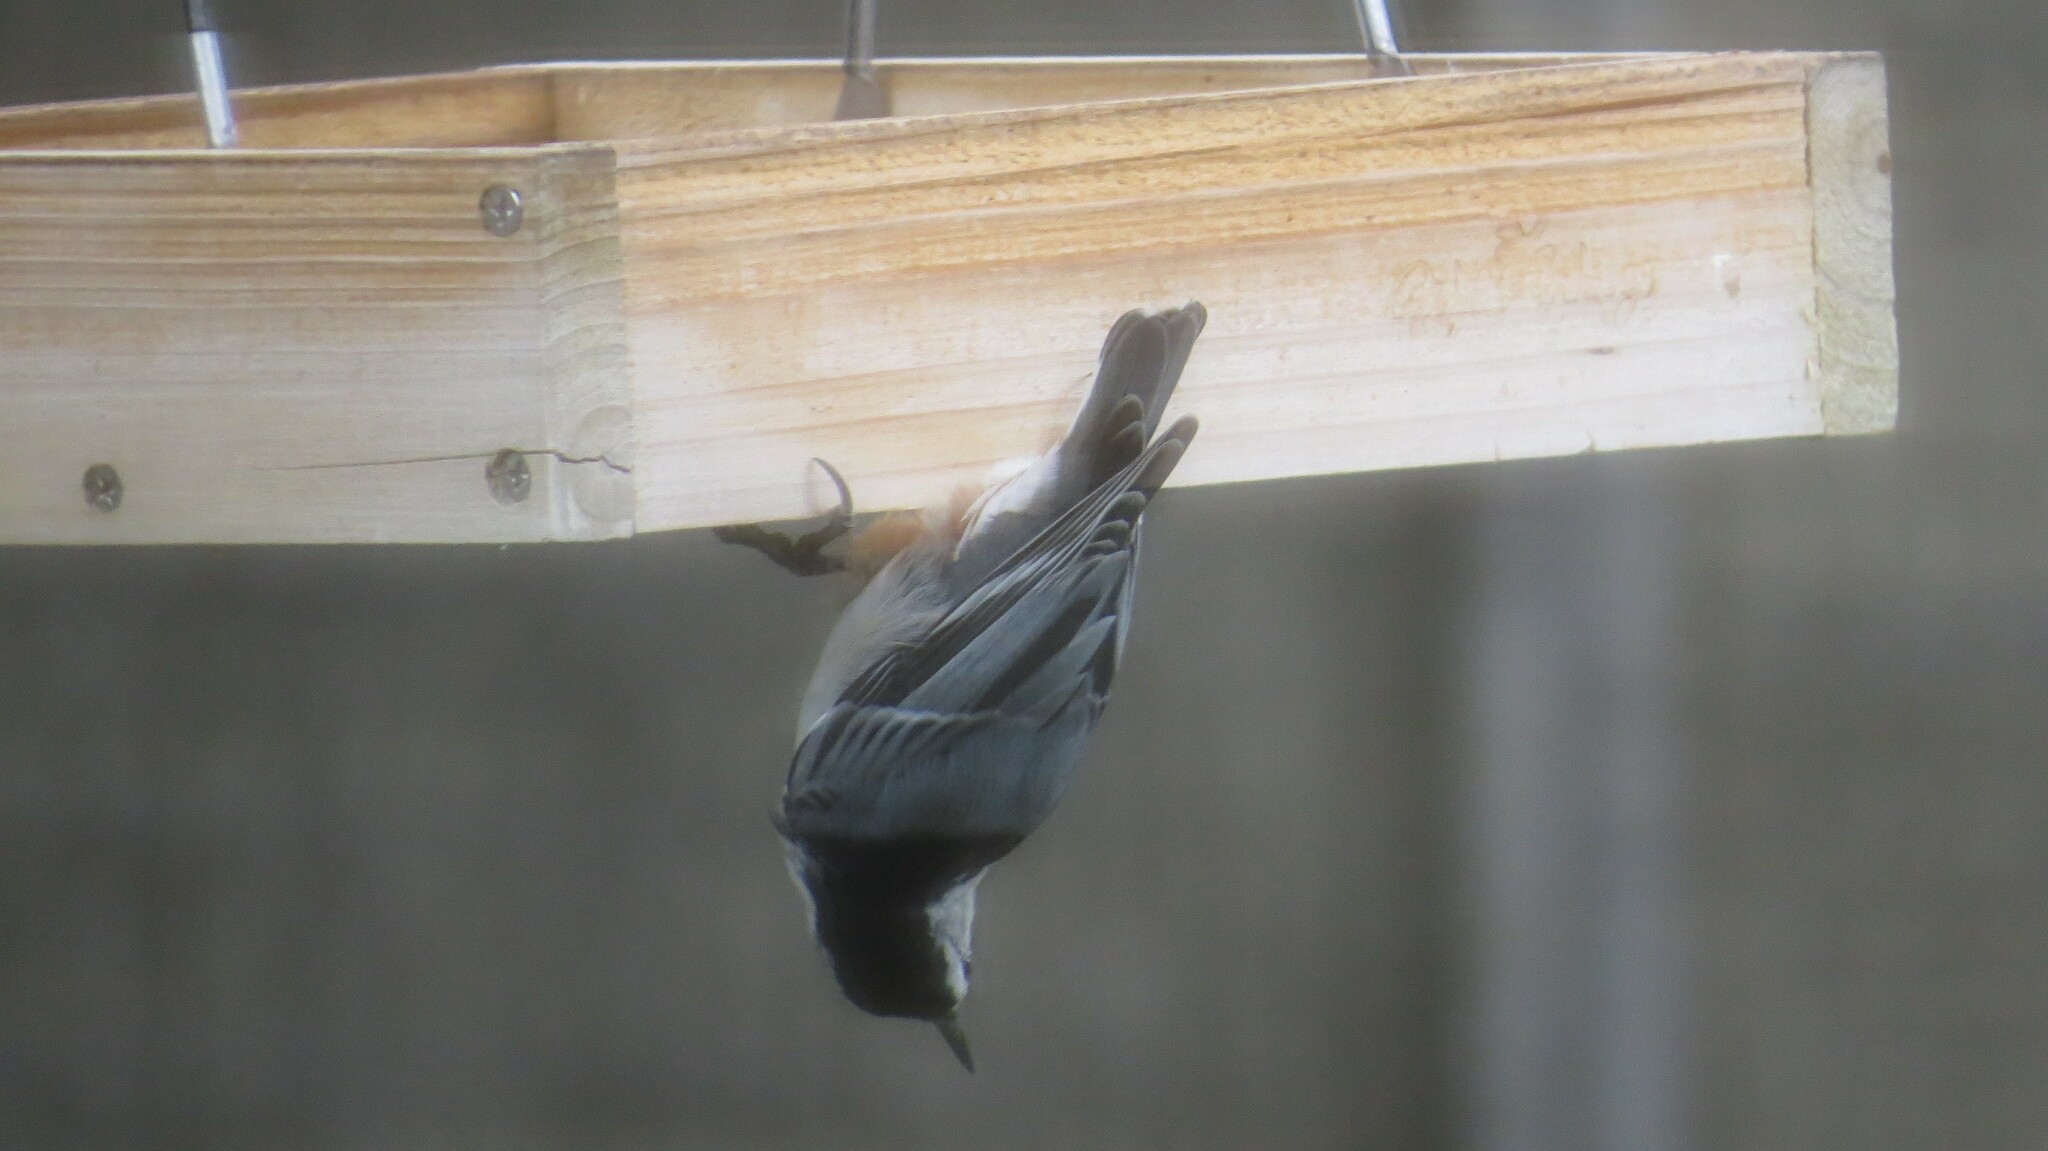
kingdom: Animalia
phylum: Chordata
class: Aves
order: Passeriformes
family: Sittidae
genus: Sitta
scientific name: Sitta carolinensis
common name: White-breasted nuthatch
